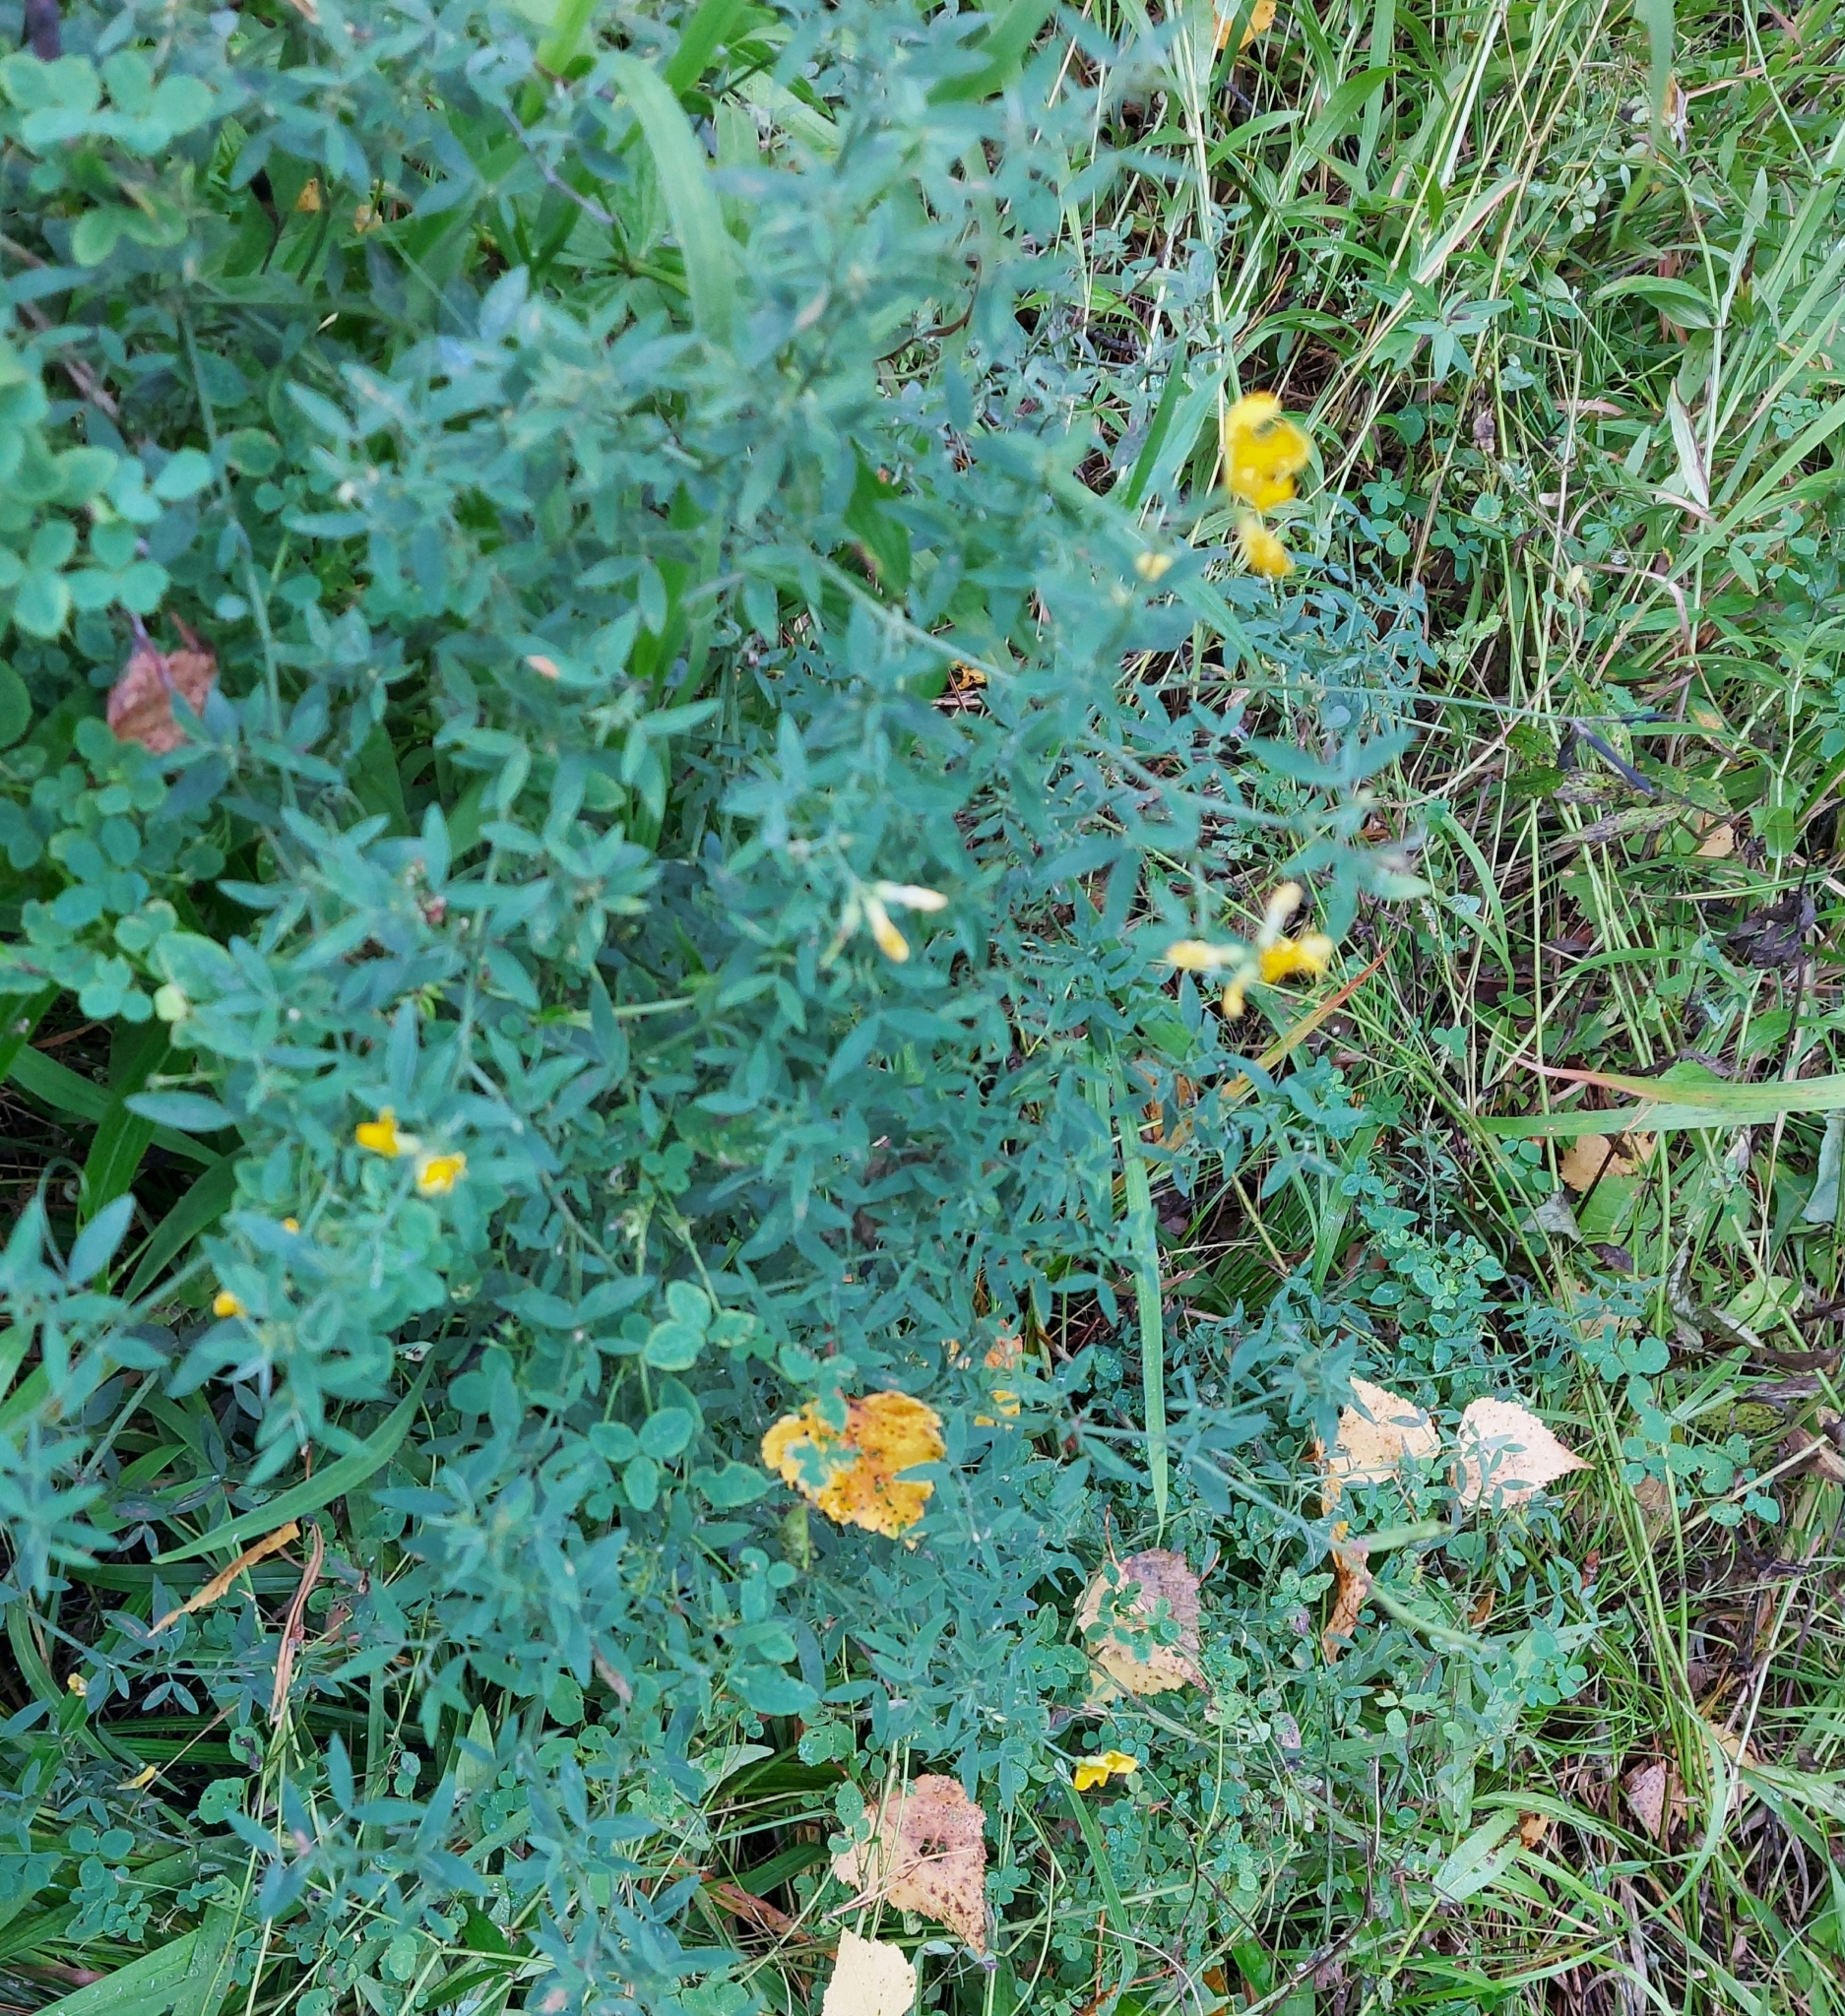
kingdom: Plantae
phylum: Tracheophyta
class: Magnoliopsida
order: Fabales
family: Fabaceae
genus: Trifolium
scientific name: Trifolium lupinaster
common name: Lupine clover
